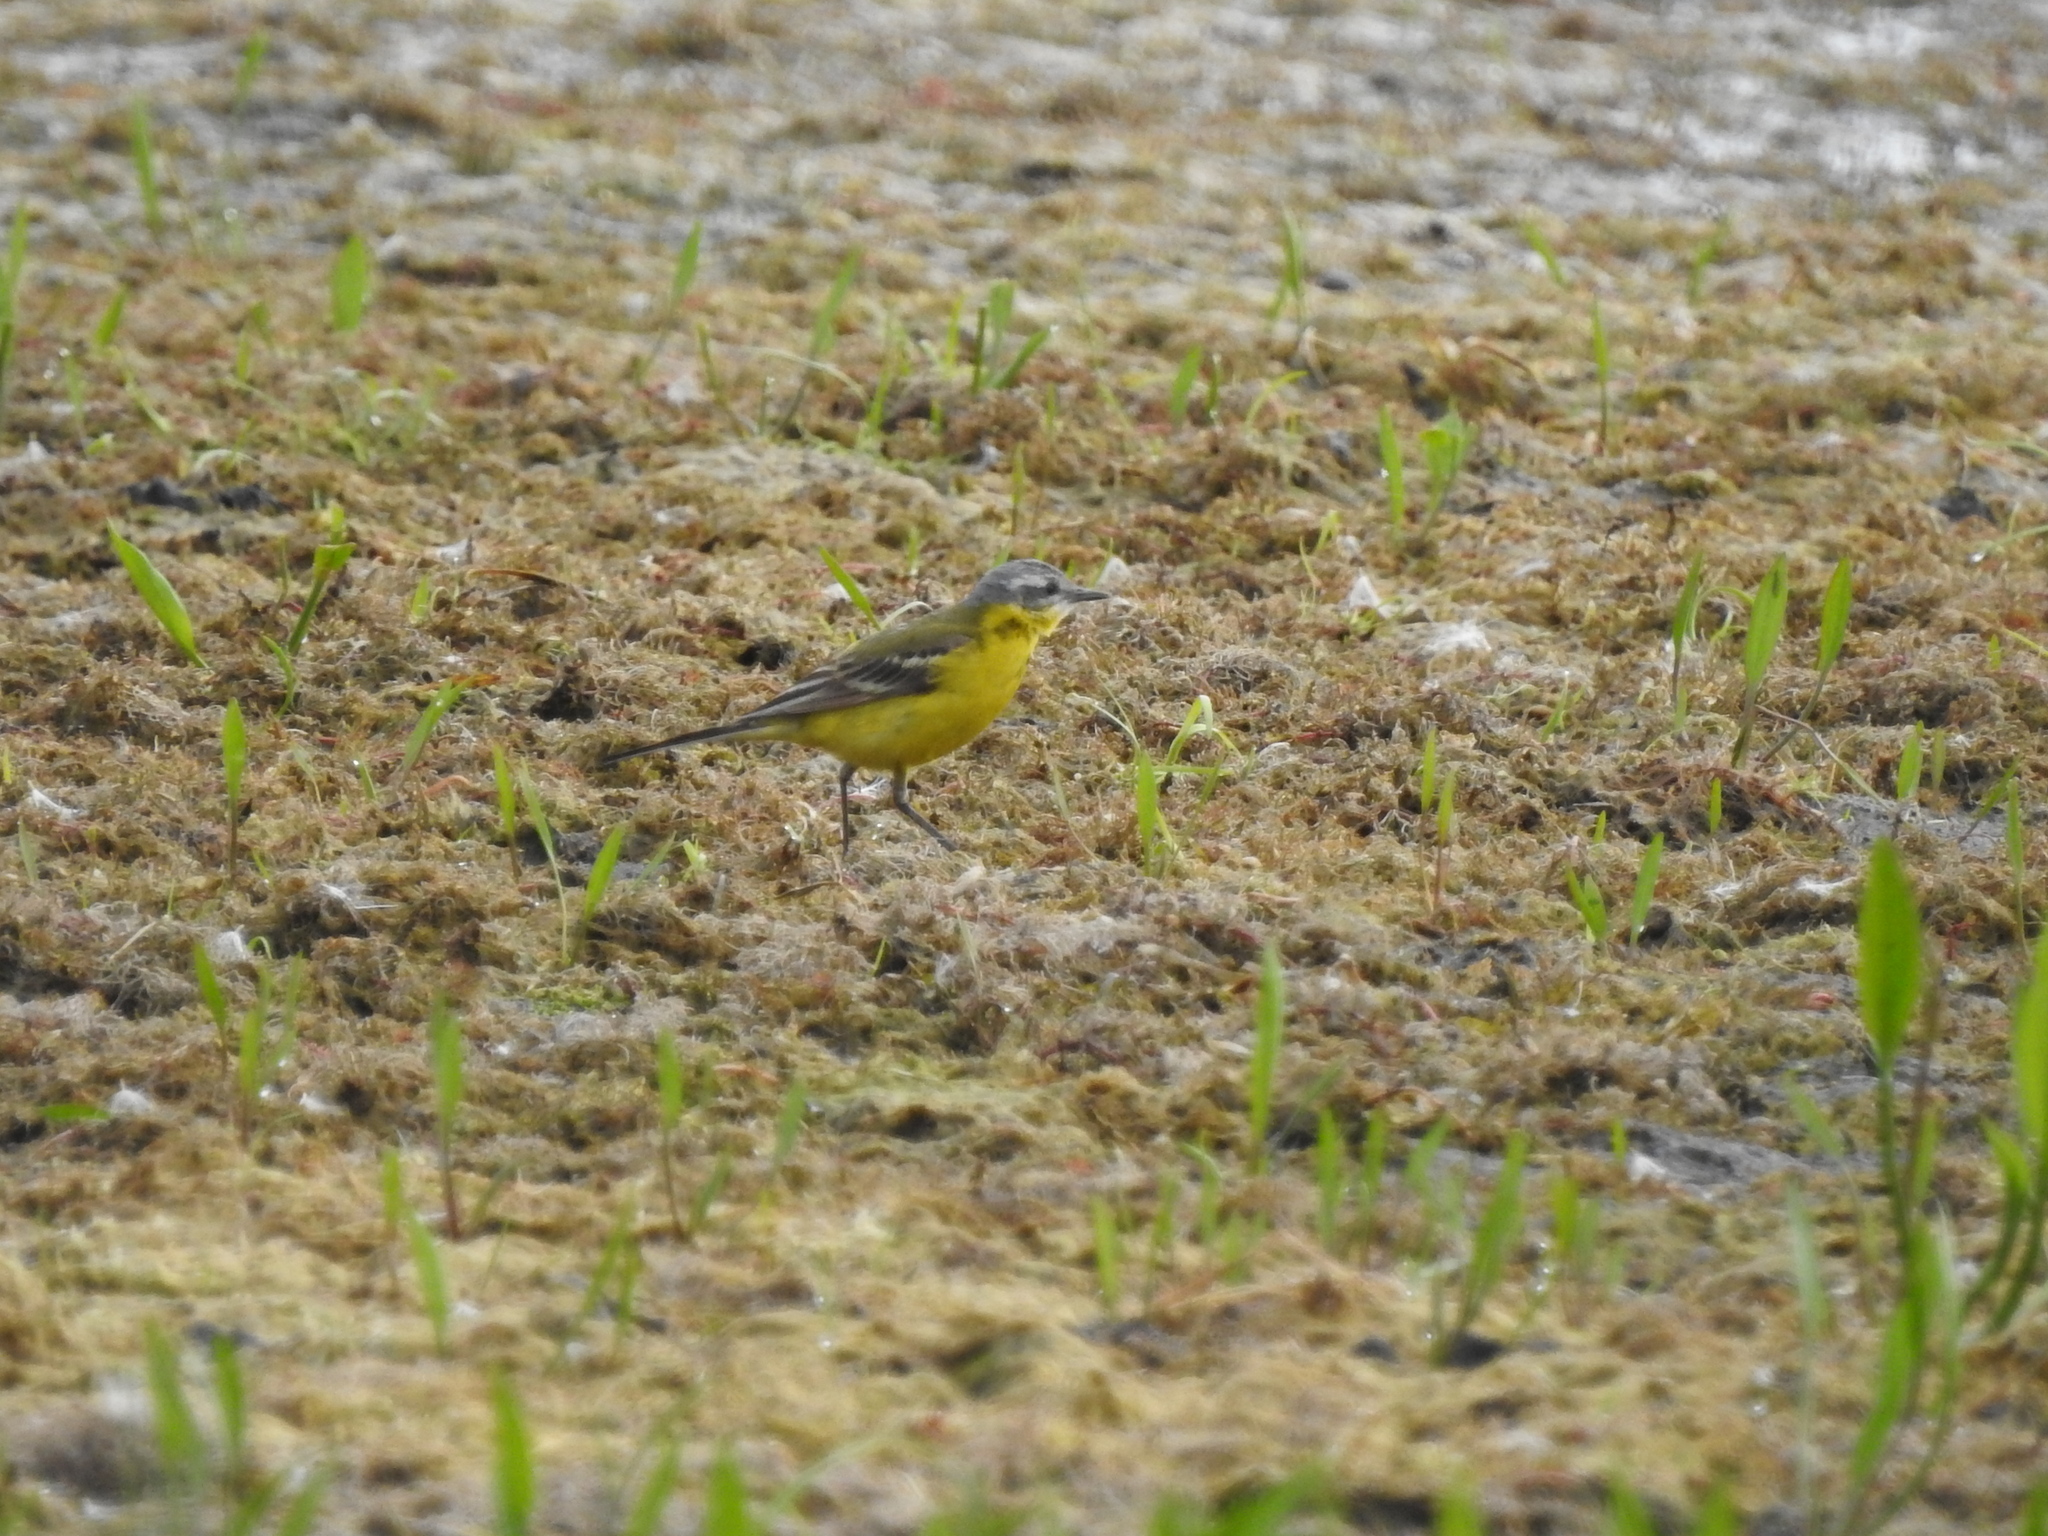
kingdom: Animalia
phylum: Chordata
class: Aves
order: Passeriformes
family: Motacillidae
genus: Motacilla
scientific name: Motacilla flava
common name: Western yellow wagtail
